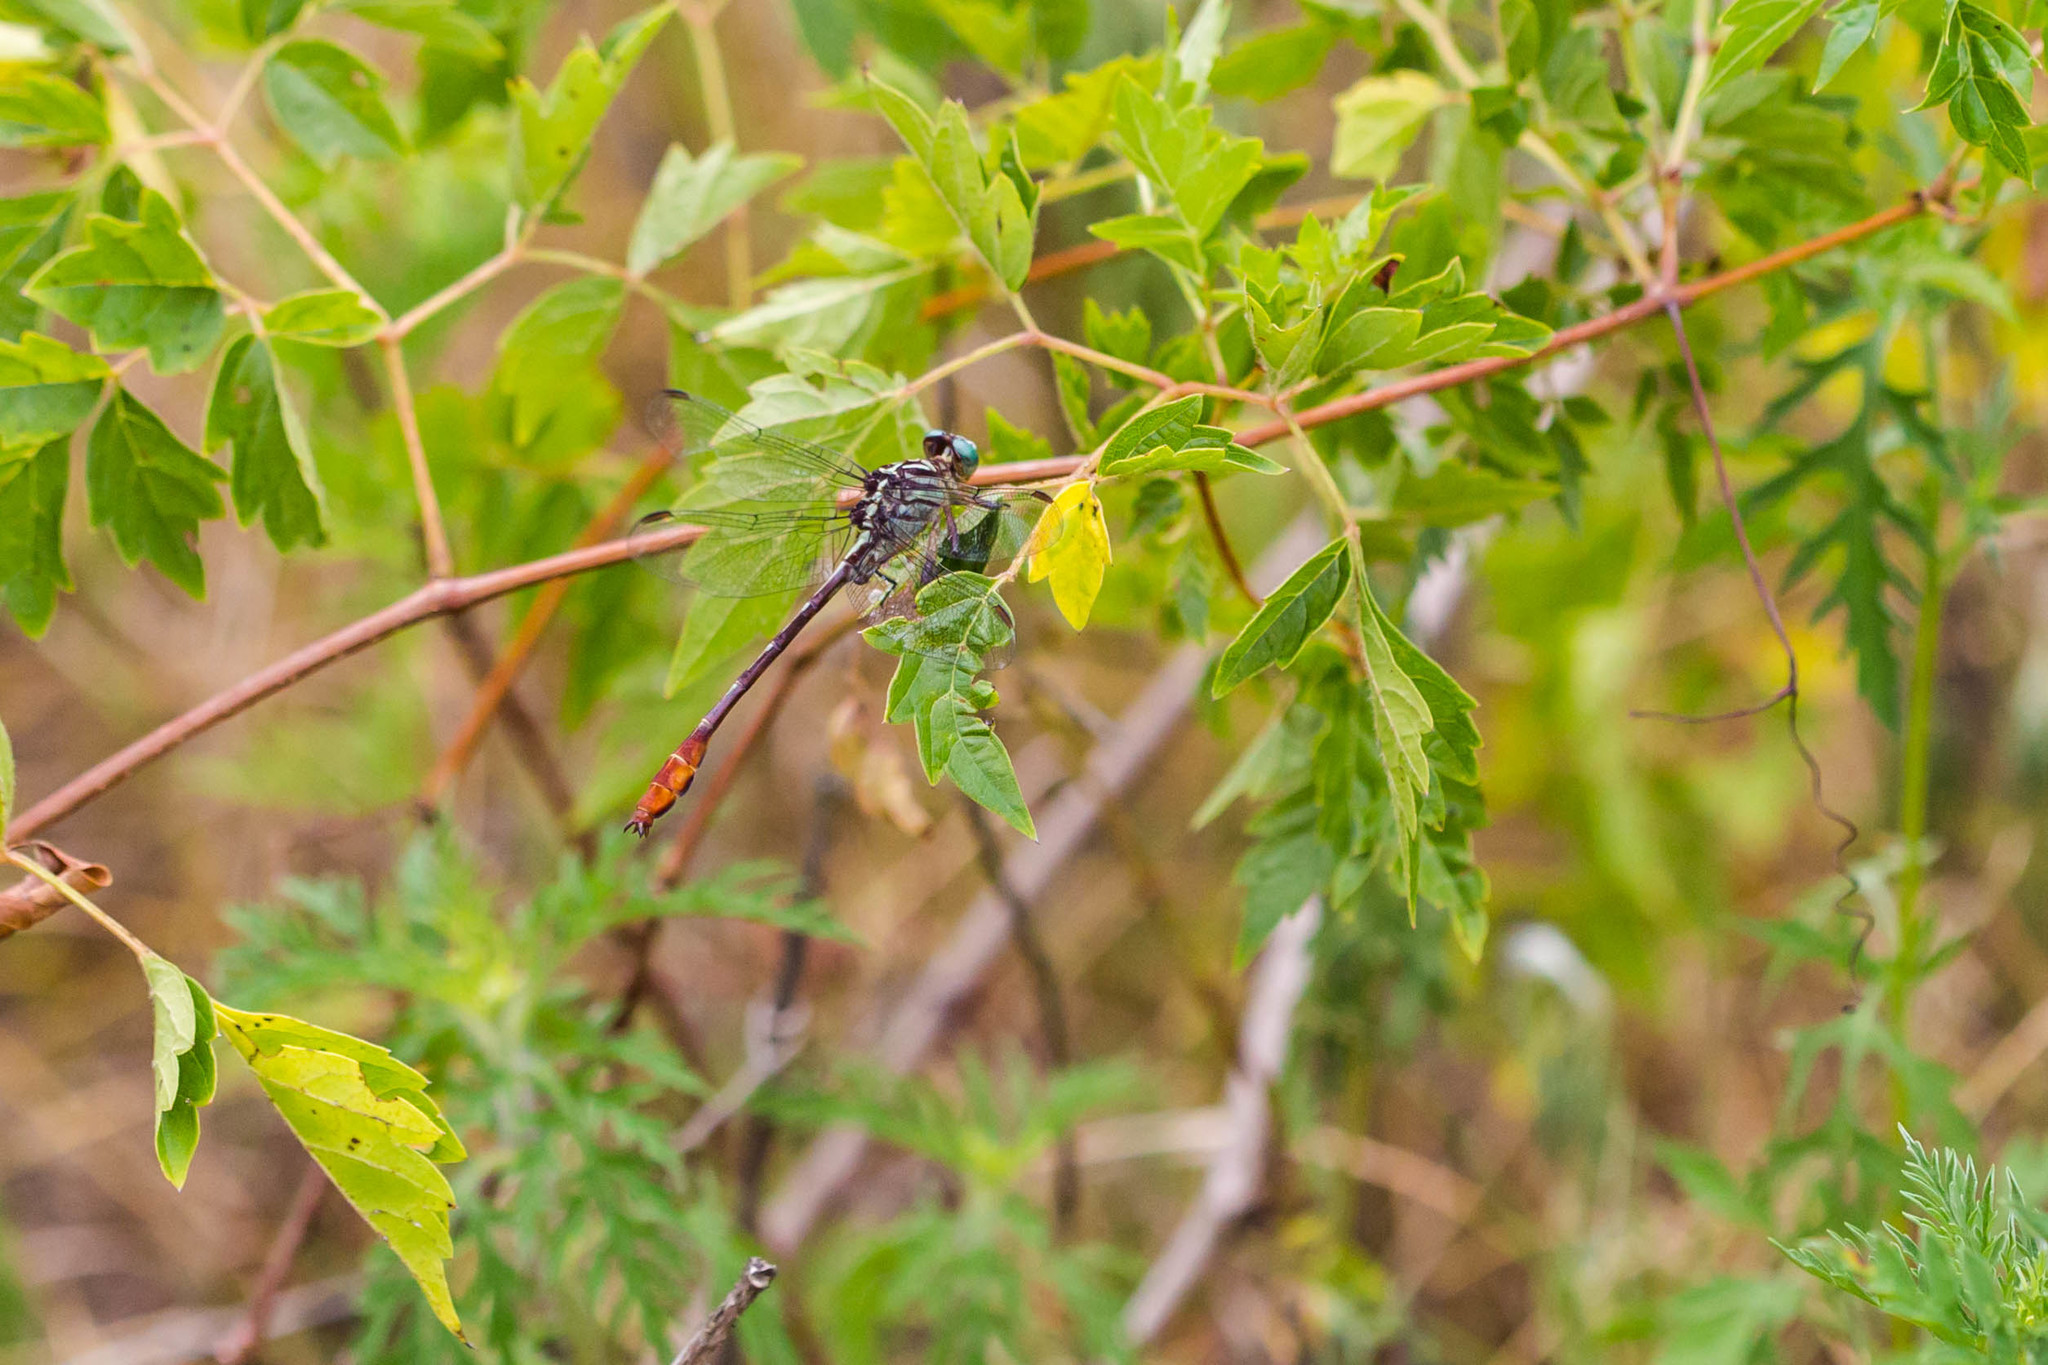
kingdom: Animalia
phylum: Arthropoda
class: Insecta
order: Odonata
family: Gomphidae
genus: Stylurus
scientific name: Stylurus plagiatus
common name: Russet-tipped clubtail
